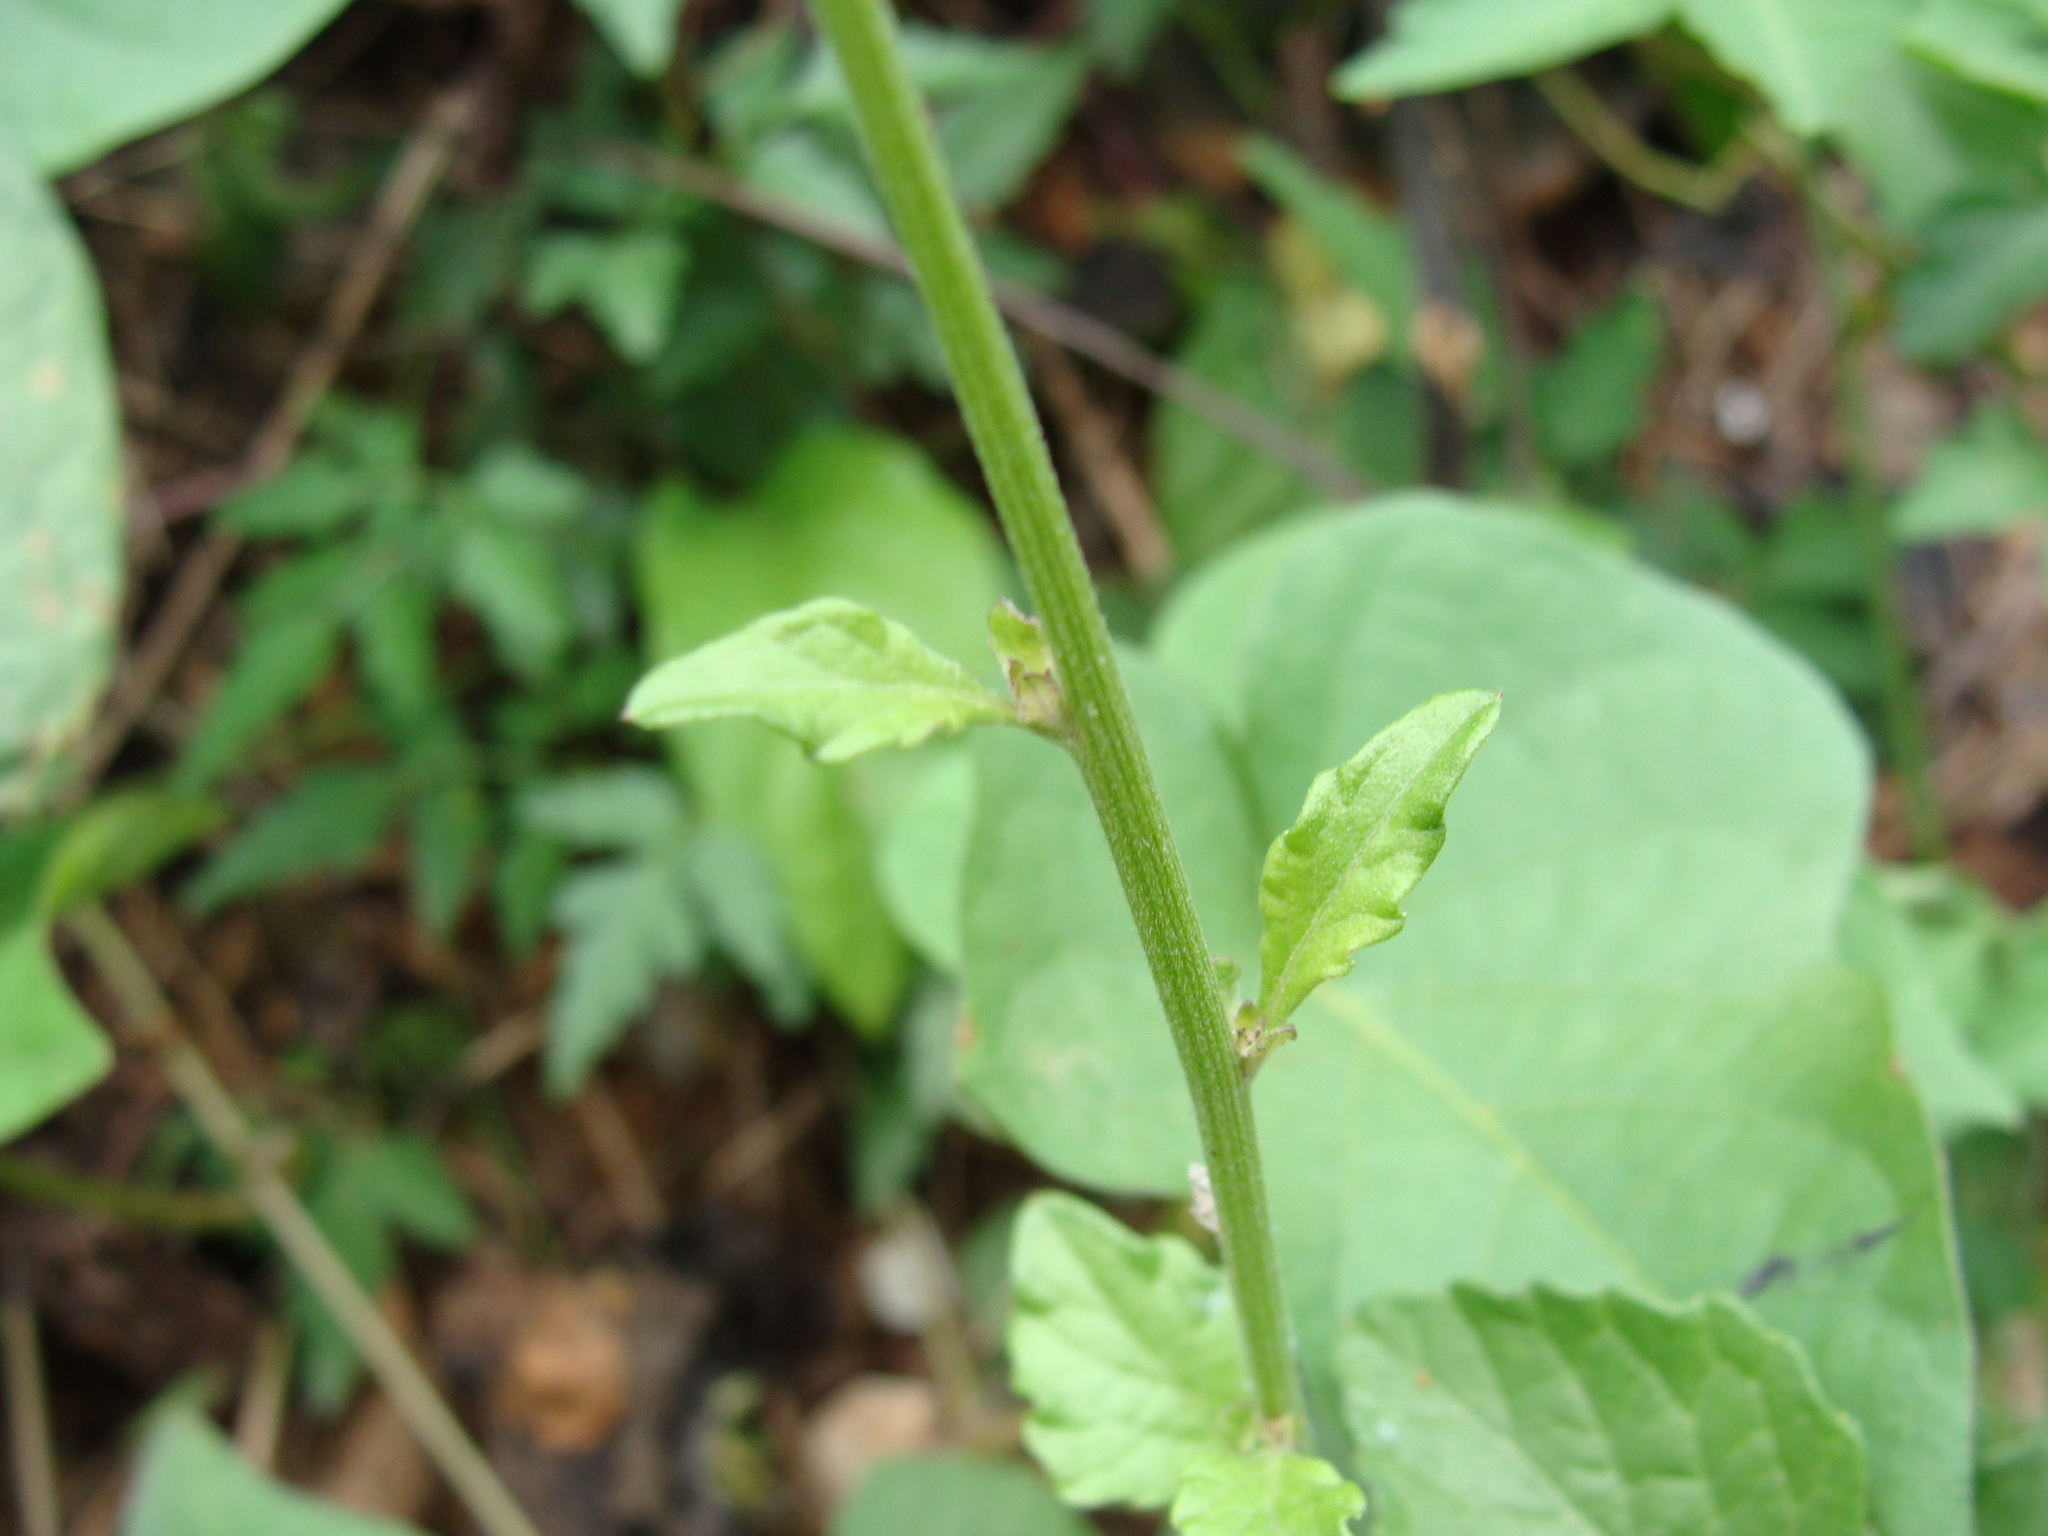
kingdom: Plantae
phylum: Tracheophyta
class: Magnoliopsida
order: Asterales
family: Asteraceae
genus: Cyanthillium
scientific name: Cyanthillium cinereum
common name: Little ironweed
